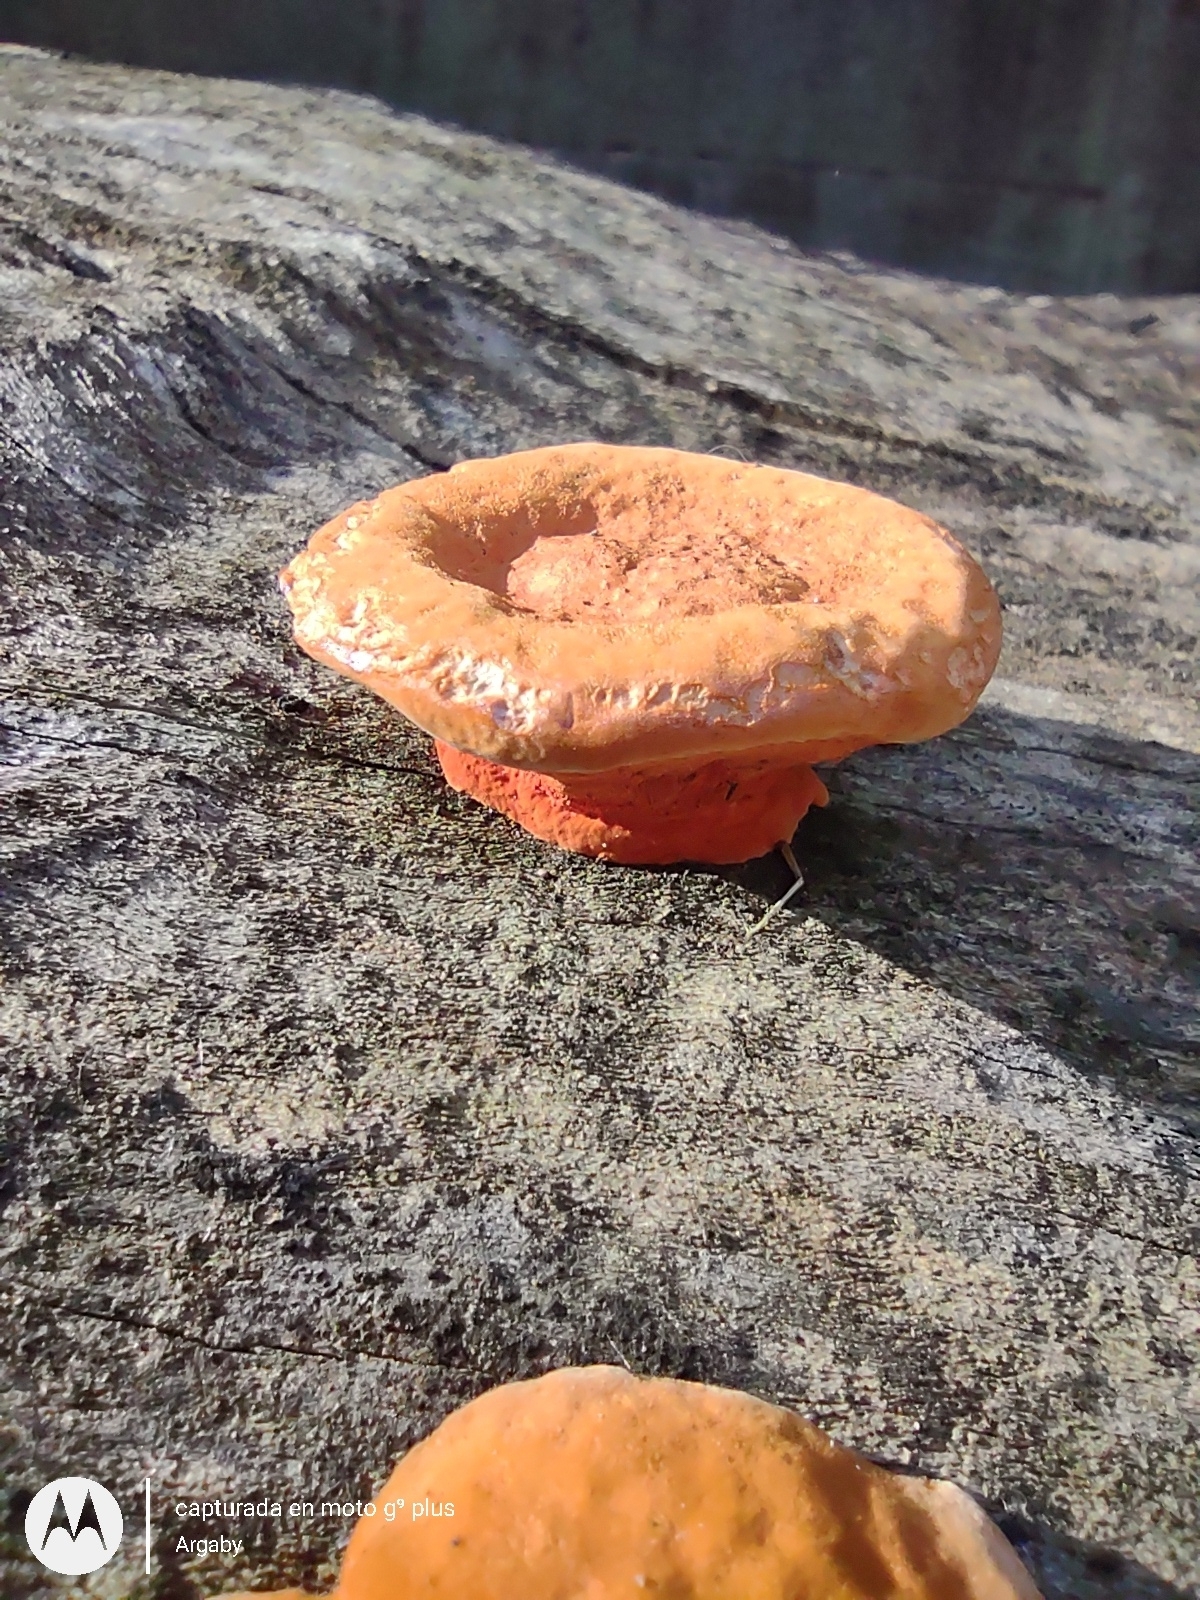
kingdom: Fungi
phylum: Basidiomycota
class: Agaricomycetes
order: Polyporales
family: Polyporaceae
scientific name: Polyporaceae
